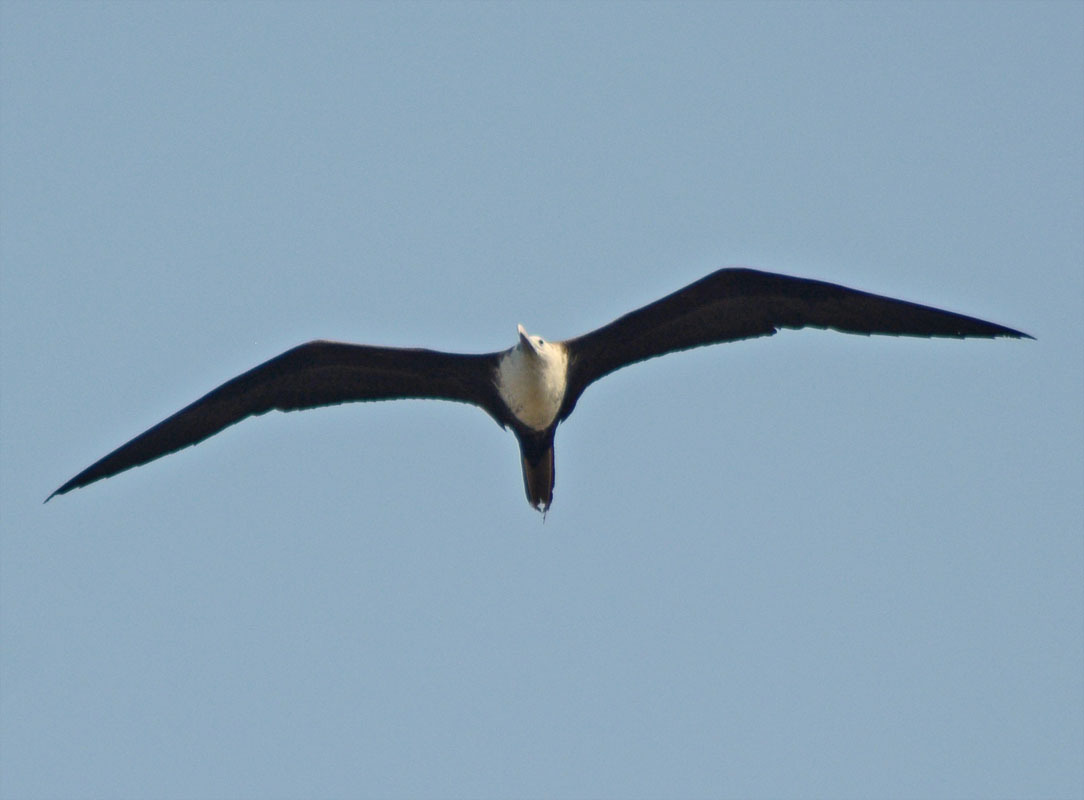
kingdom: Animalia
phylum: Chordata
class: Aves
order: Suliformes
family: Fregatidae
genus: Fregata
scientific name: Fregata magnificens
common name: Magnificent frigatebird
